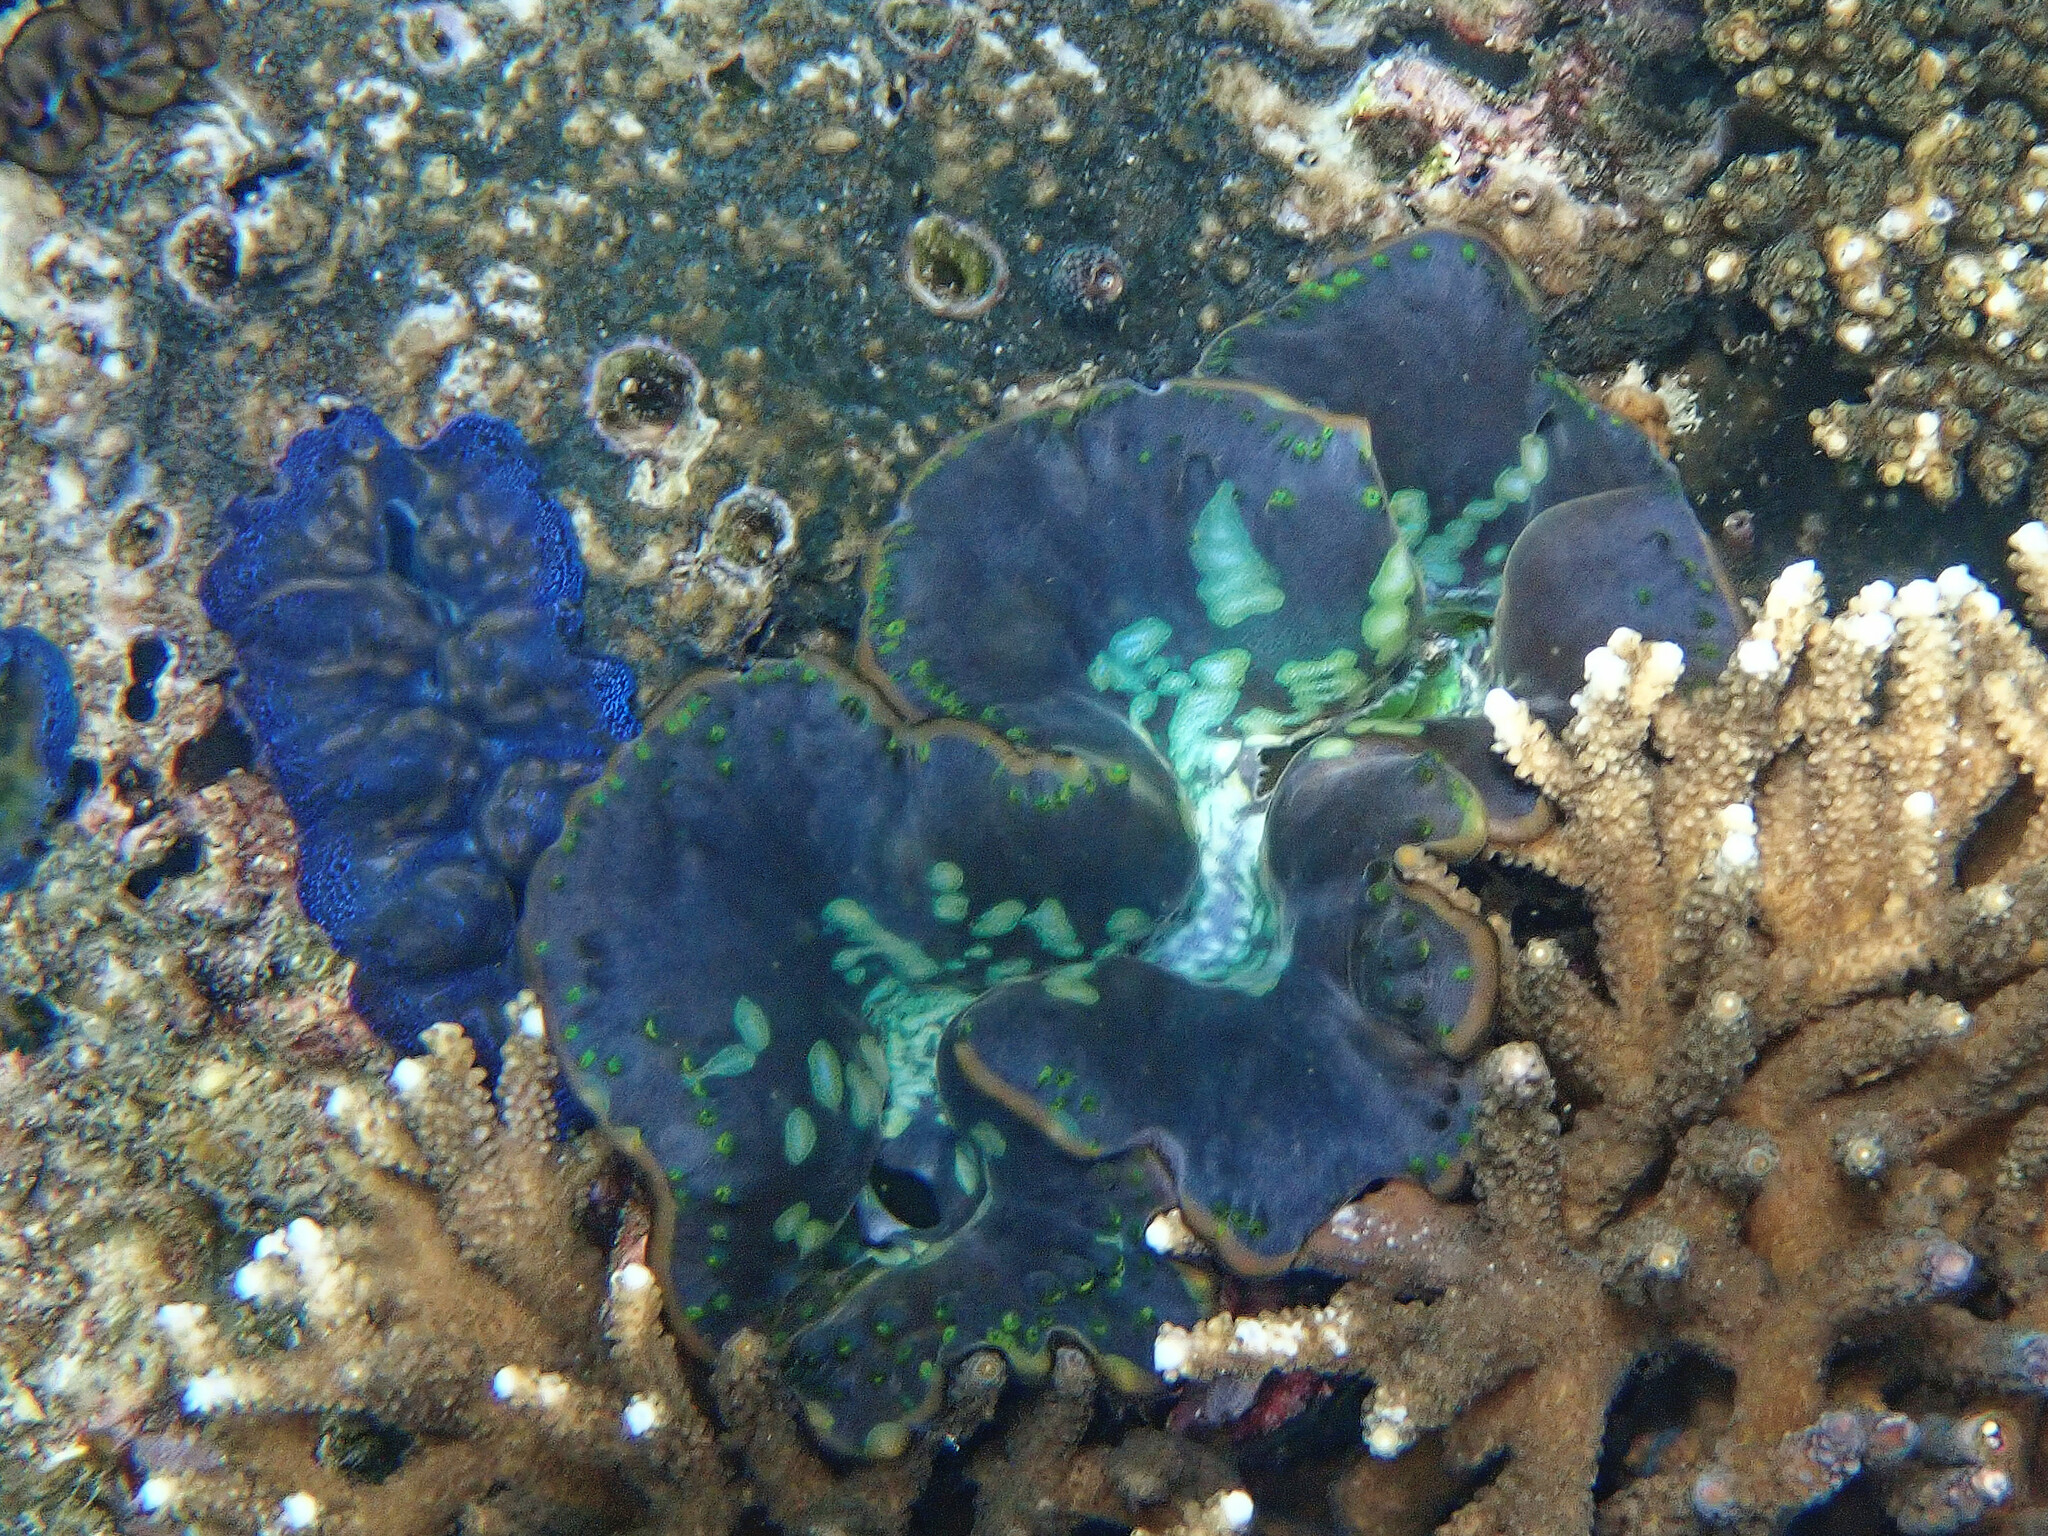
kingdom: Animalia
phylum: Mollusca
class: Bivalvia
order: Cardiida
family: Cardiidae
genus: Tridacna
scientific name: Tridacna maxima
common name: Small giant clam
